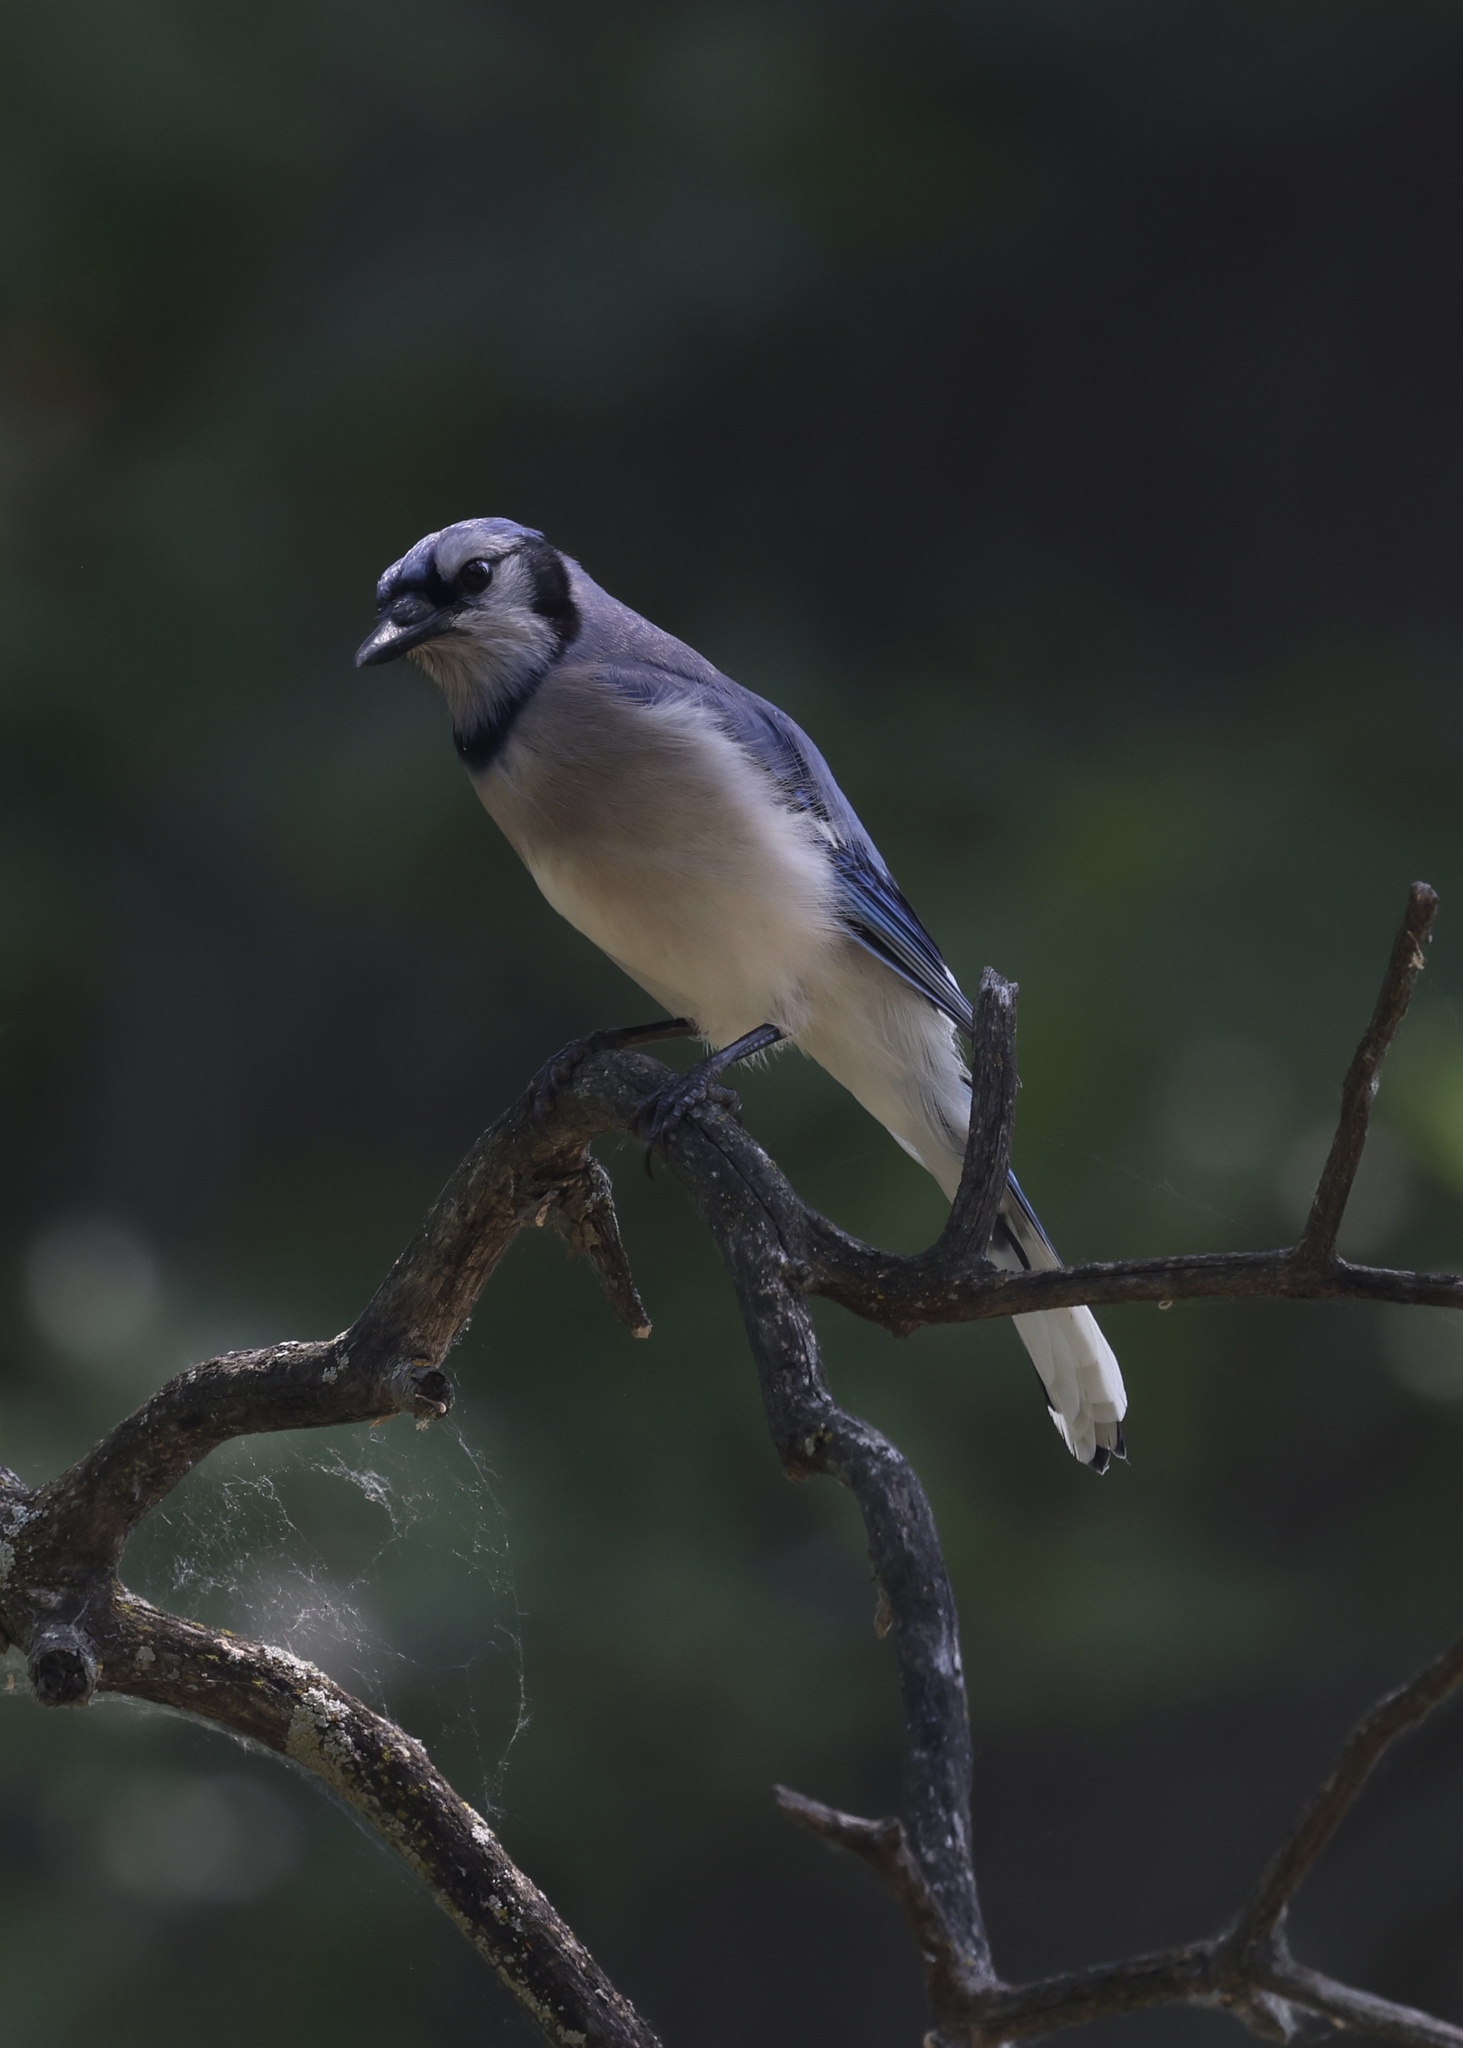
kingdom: Animalia
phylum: Chordata
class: Aves
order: Passeriformes
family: Corvidae
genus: Cyanocitta
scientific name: Cyanocitta cristata
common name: Blue jay
